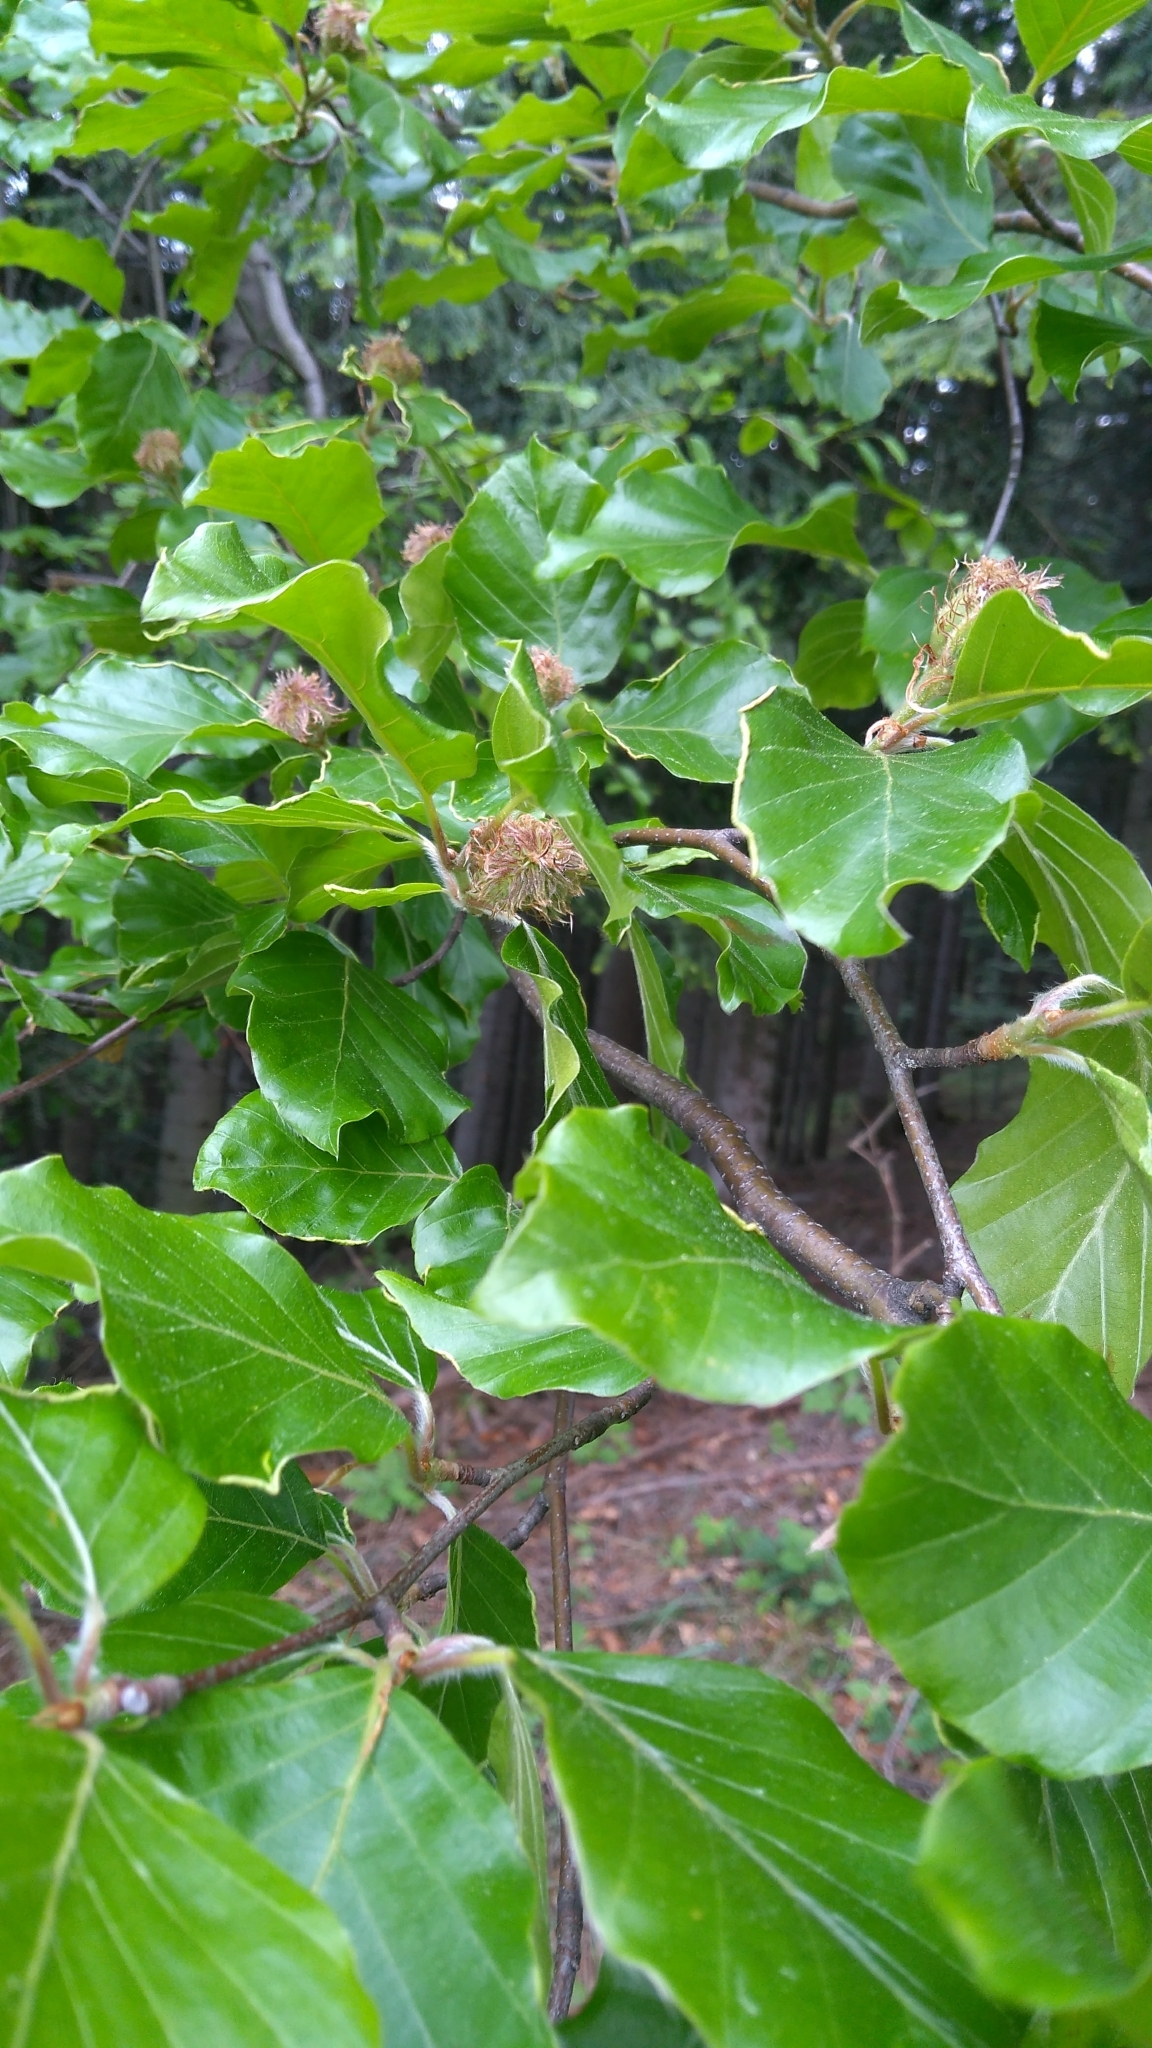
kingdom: Plantae
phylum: Tracheophyta
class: Magnoliopsida
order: Fagales
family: Fagaceae
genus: Fagus
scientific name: Fagus sylvatica
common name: Beech
